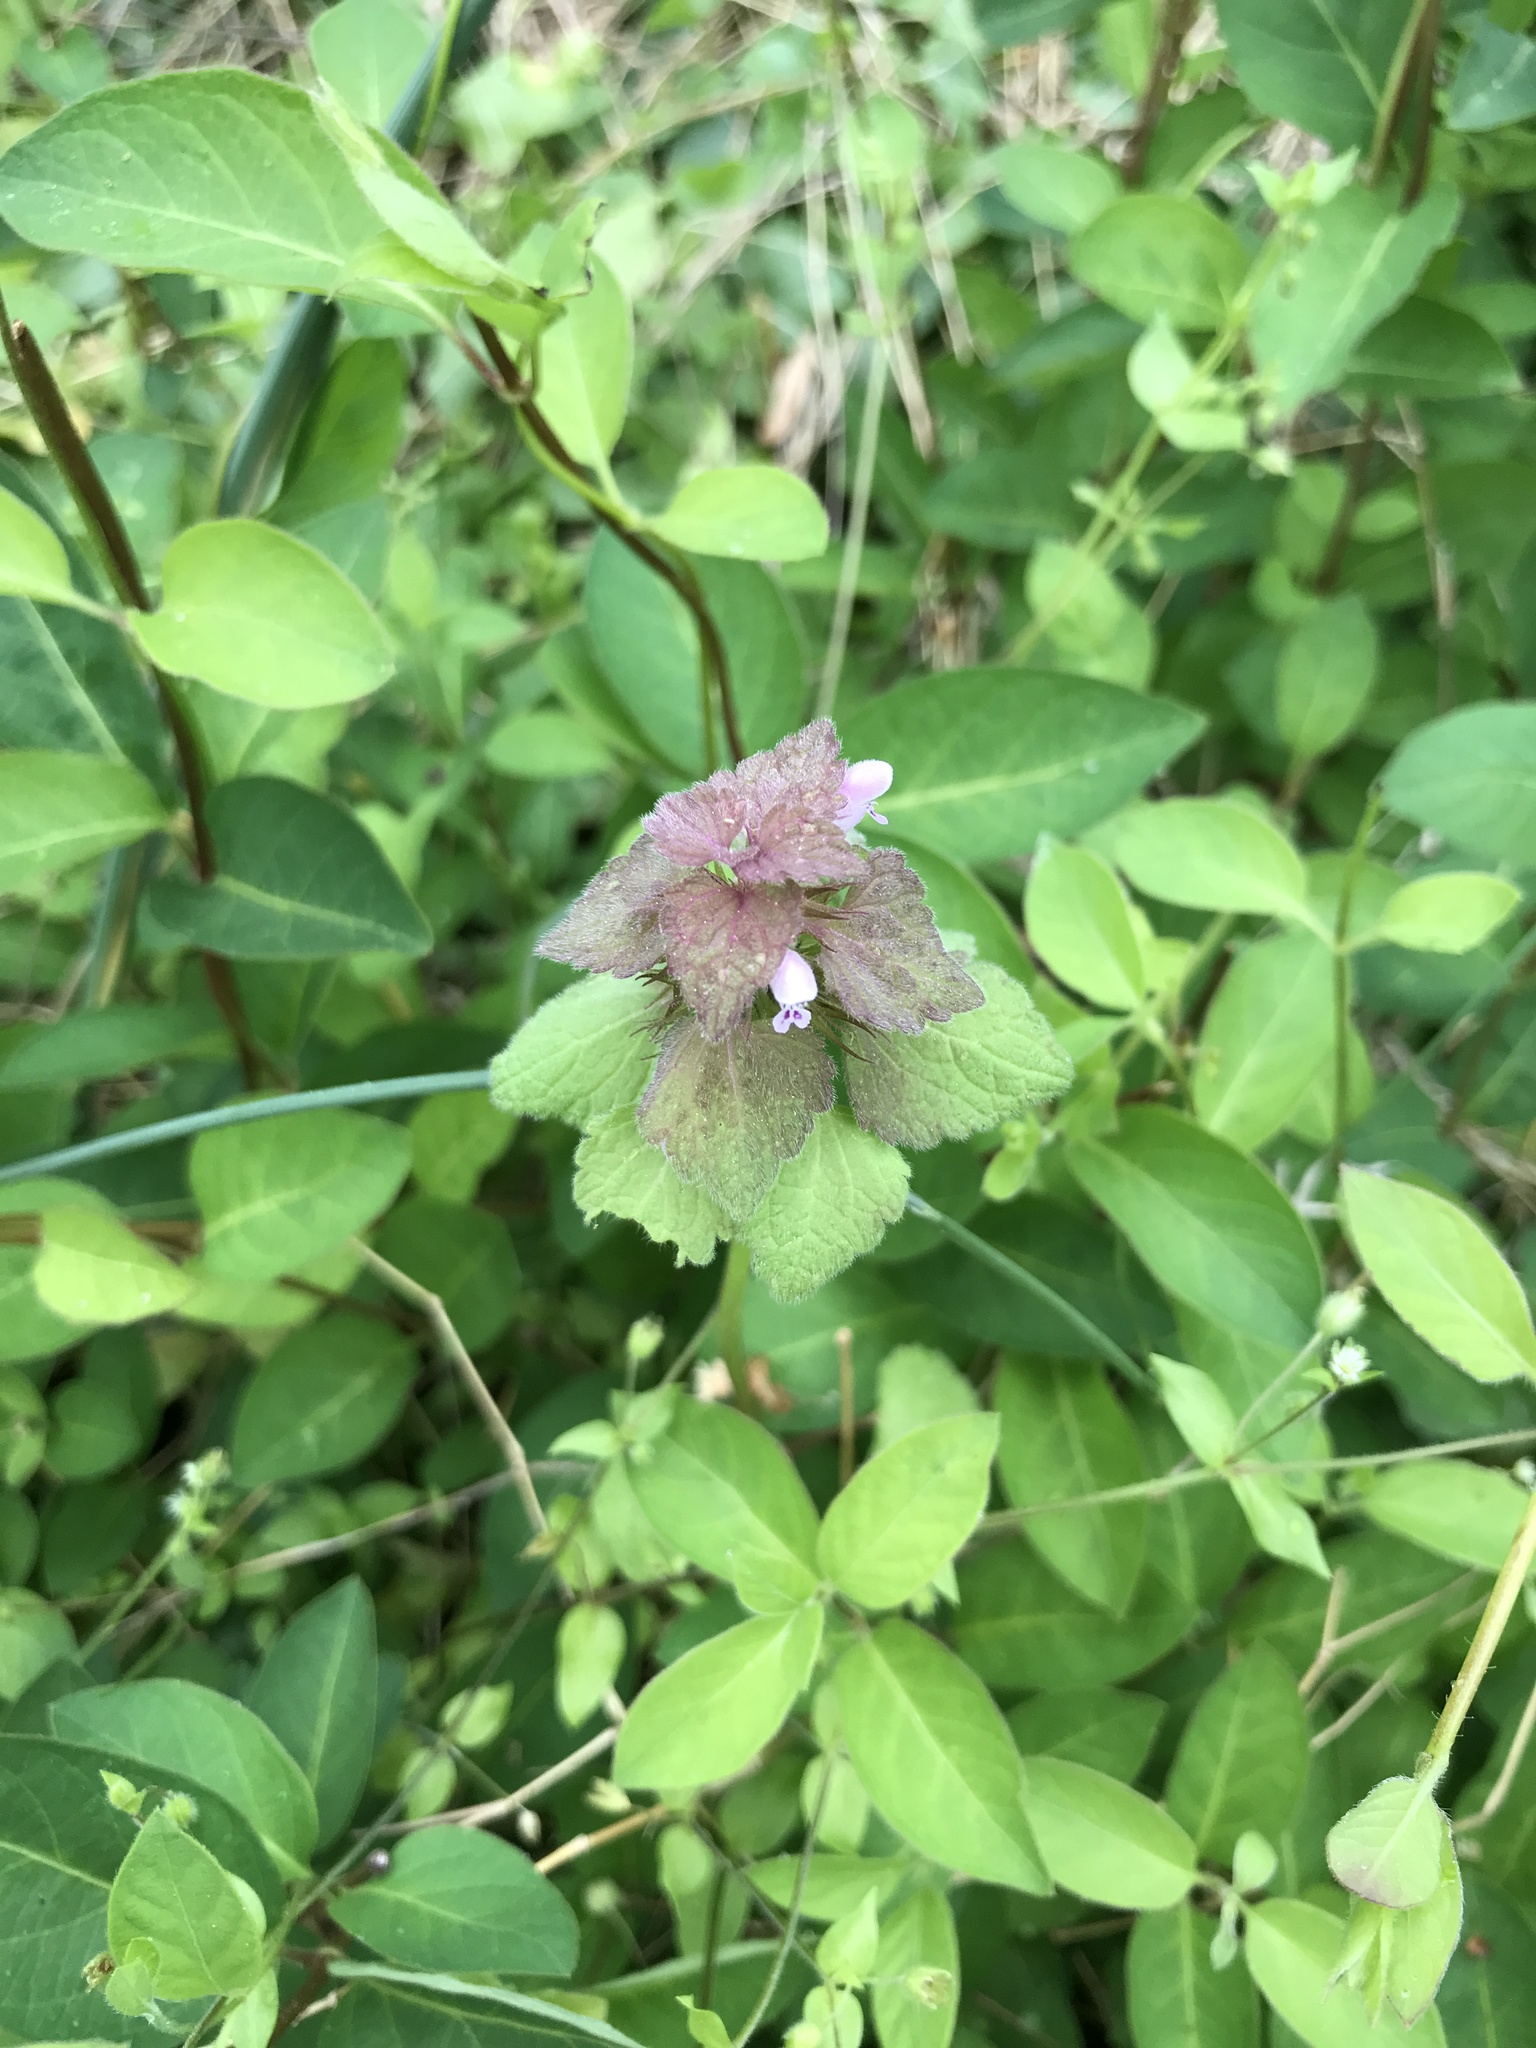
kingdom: Plantae
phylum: Tracheophyta
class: Magnoliopsida
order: Lamiales
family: Lamiaceae
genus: Lamium
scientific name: Lamium purpureum
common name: Red dead-nettle
